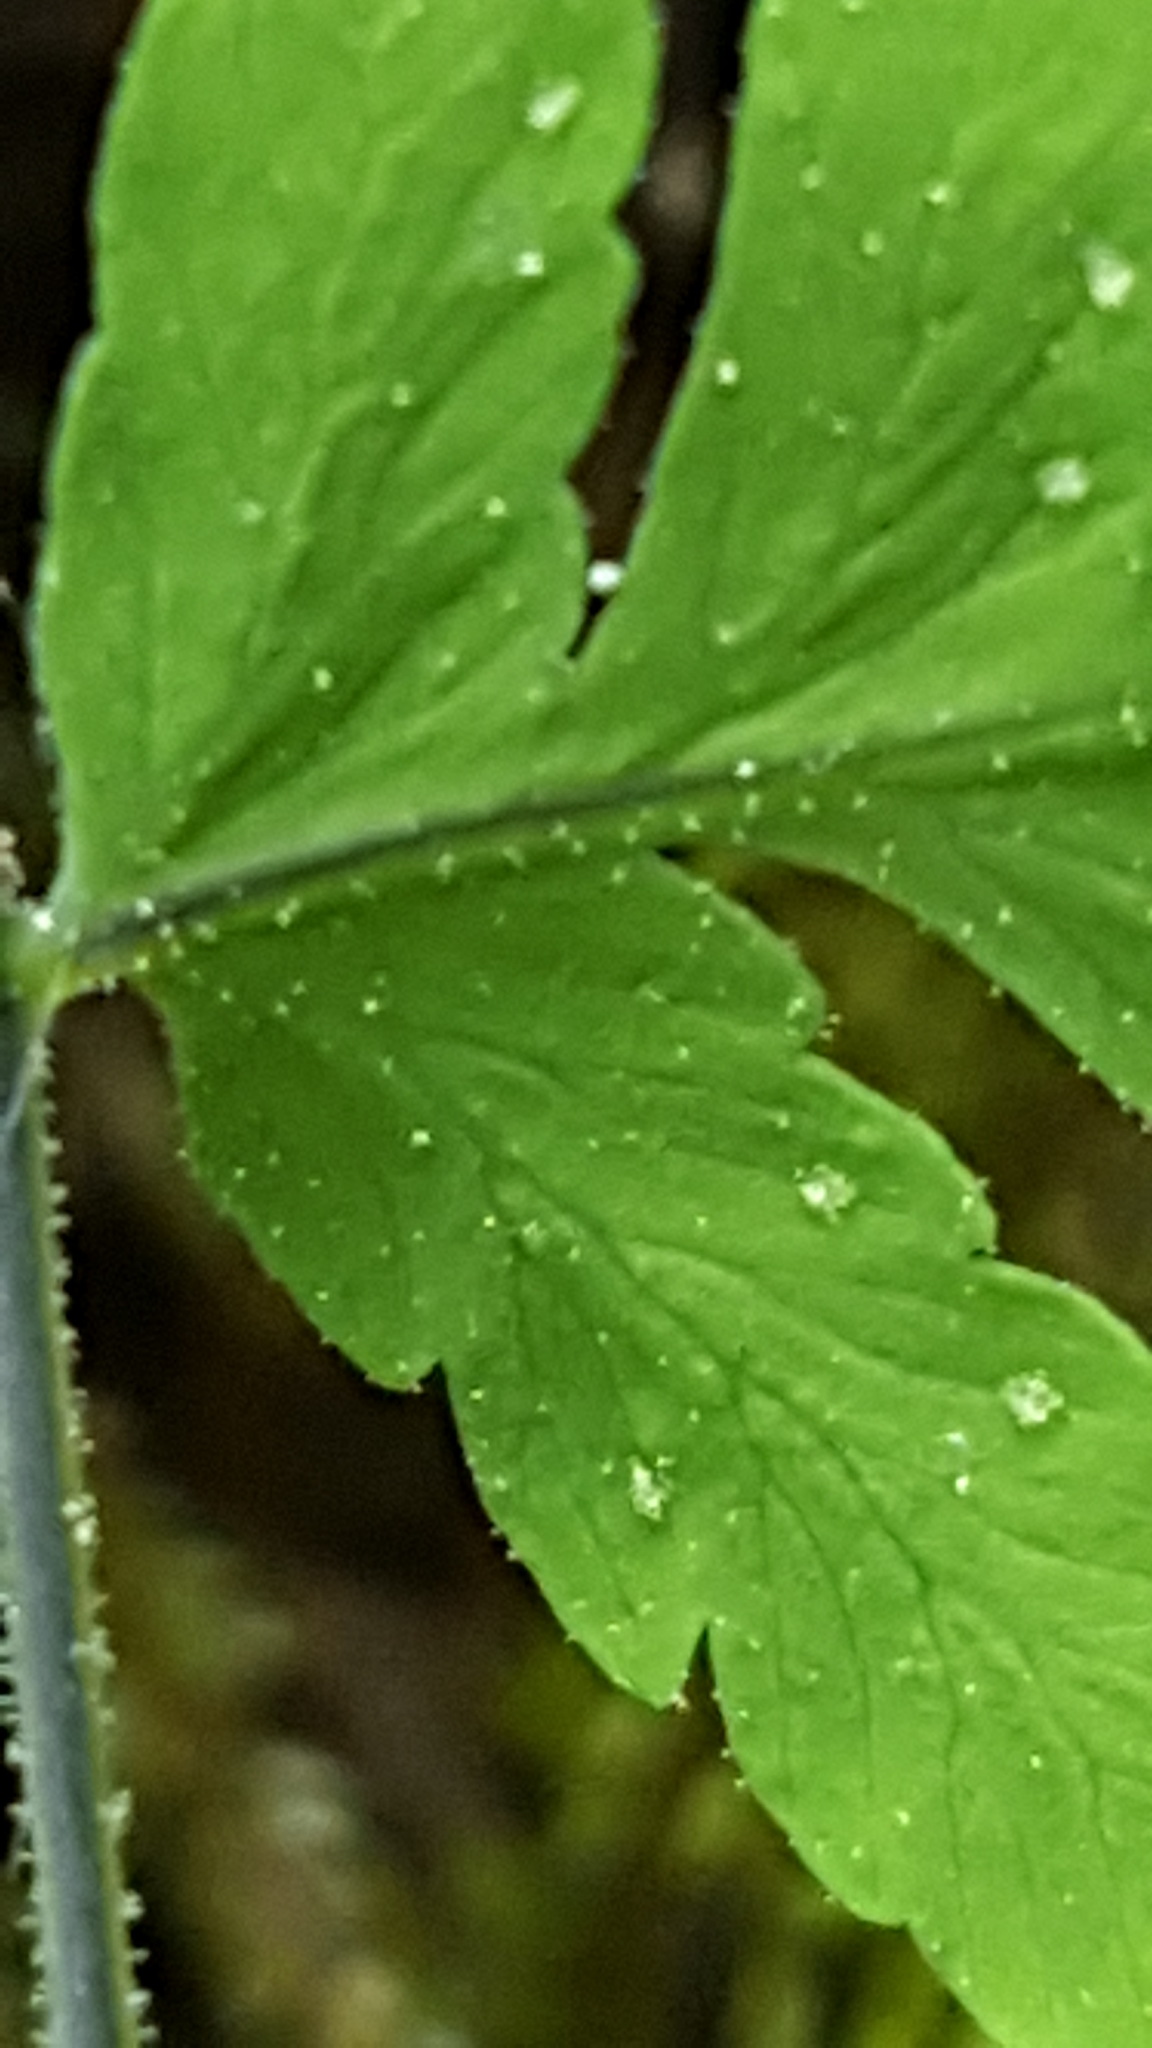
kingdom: Plantae
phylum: Tracheophyta
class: Polypodiopsida
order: Polypodiales
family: Cystopteridaceae
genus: Gymnocarpium
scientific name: Gymnocarpium jessoense
